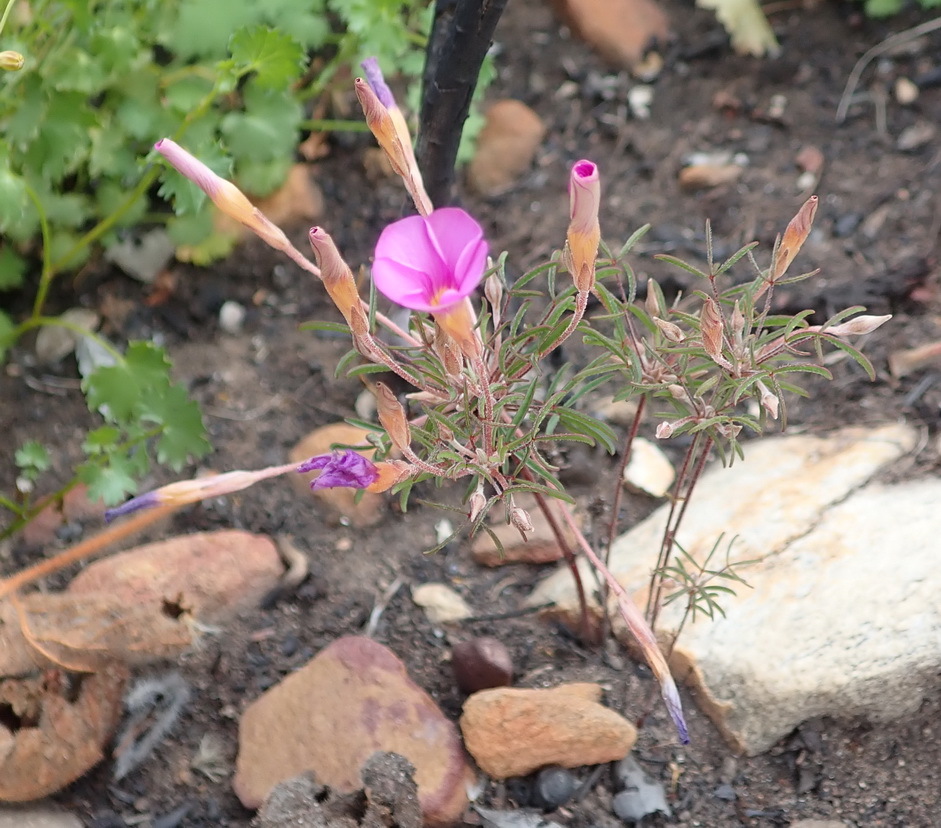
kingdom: Plantae
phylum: Tracheophyta
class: Magnoliopsida
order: Oxalidales
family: Oxalidaceae
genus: Oxalis
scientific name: Oxalis ciliaris
